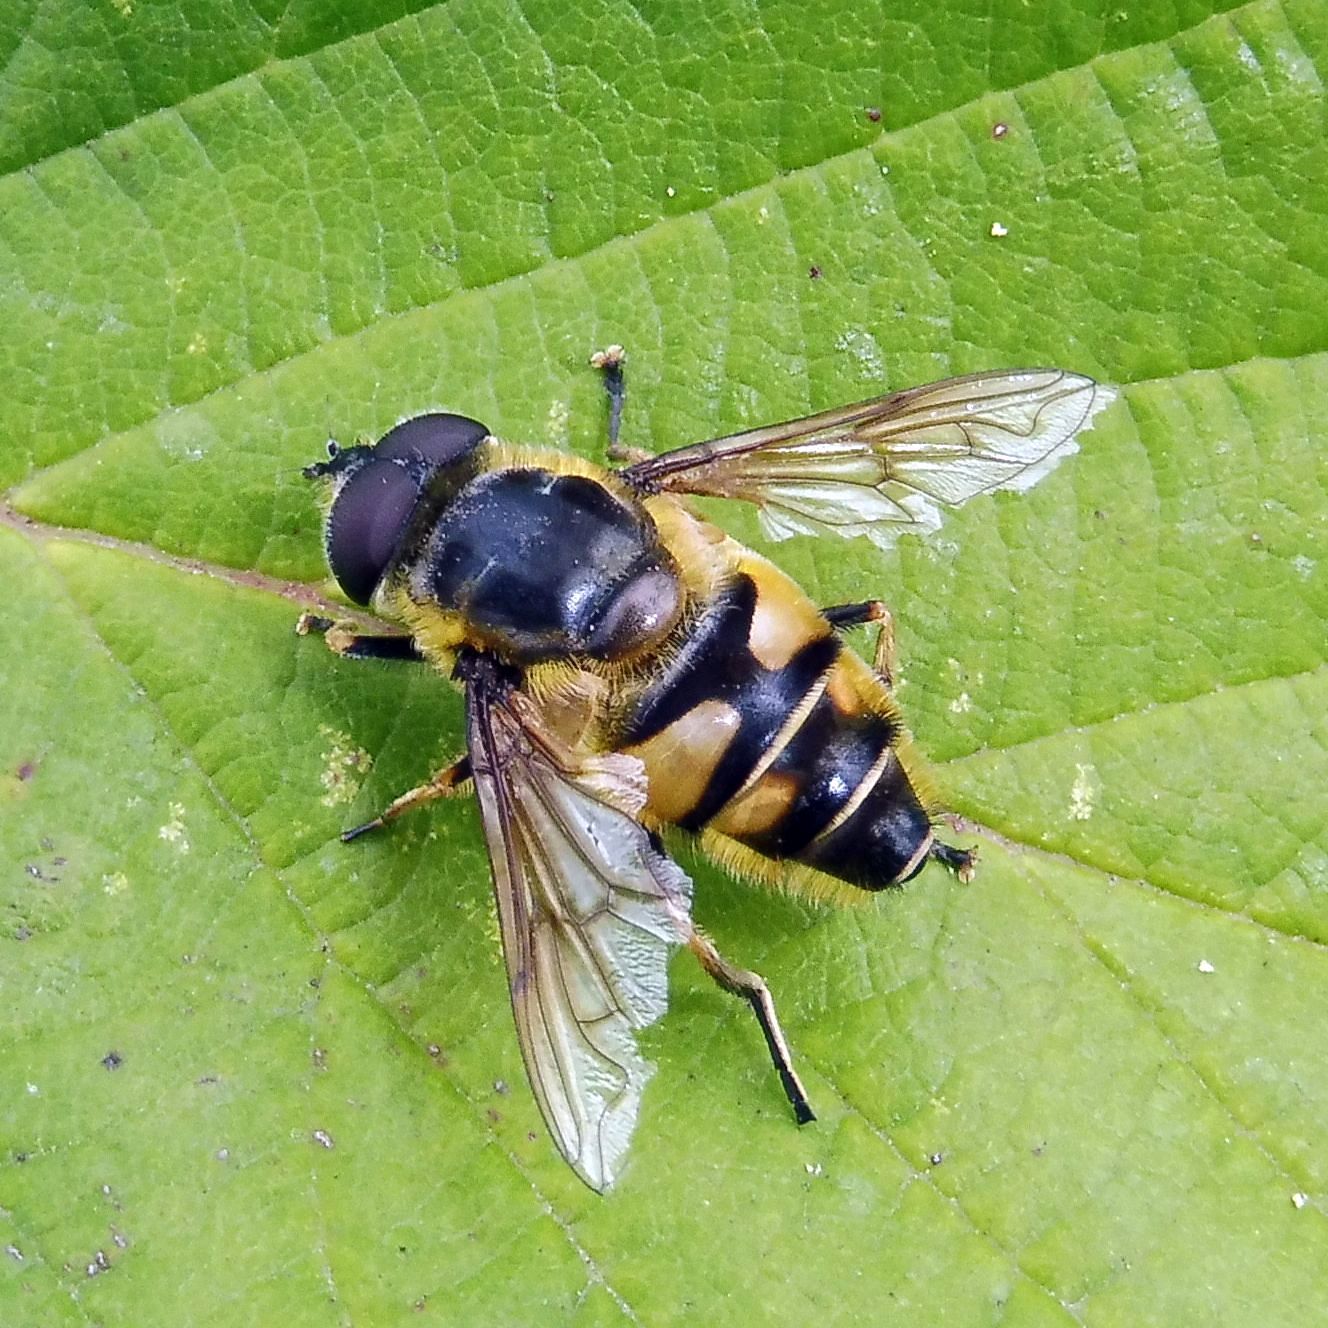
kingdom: Animalia
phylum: Arthropoda
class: Insecta
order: Diptera
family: Syrphidae
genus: Myathropa
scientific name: Myathropa florea
